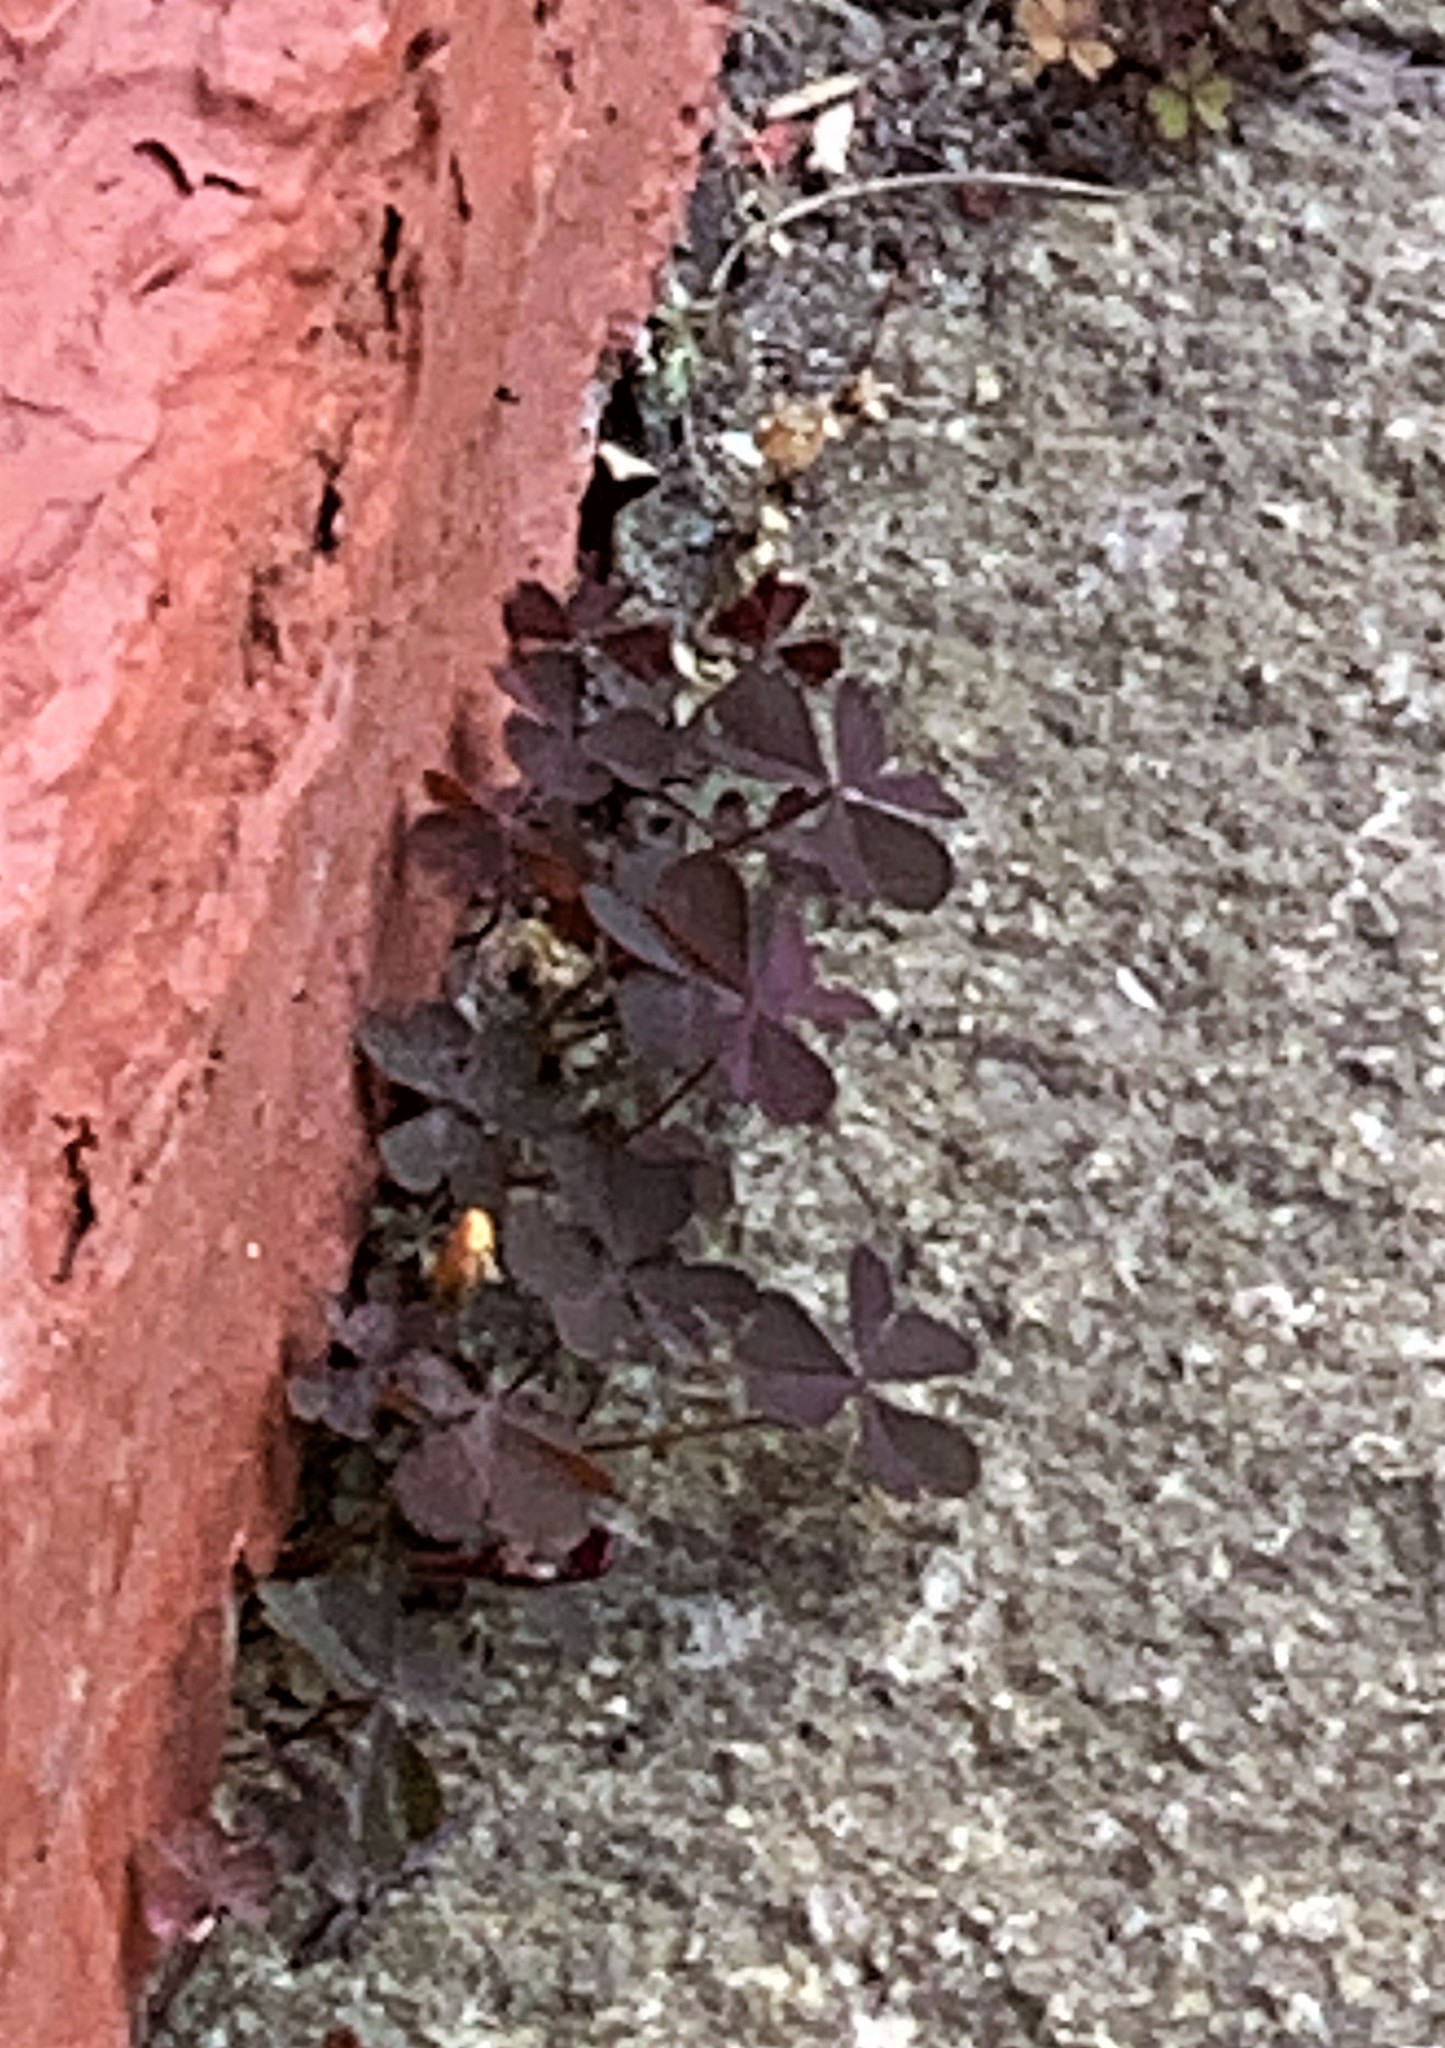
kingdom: Plantae
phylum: Tracheophyta
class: Magnoliopsida
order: Oxalidales
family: Oxalidaceae
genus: Oxalis
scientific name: Oxalis corniculata
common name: Procumbent yellow-sorrel
